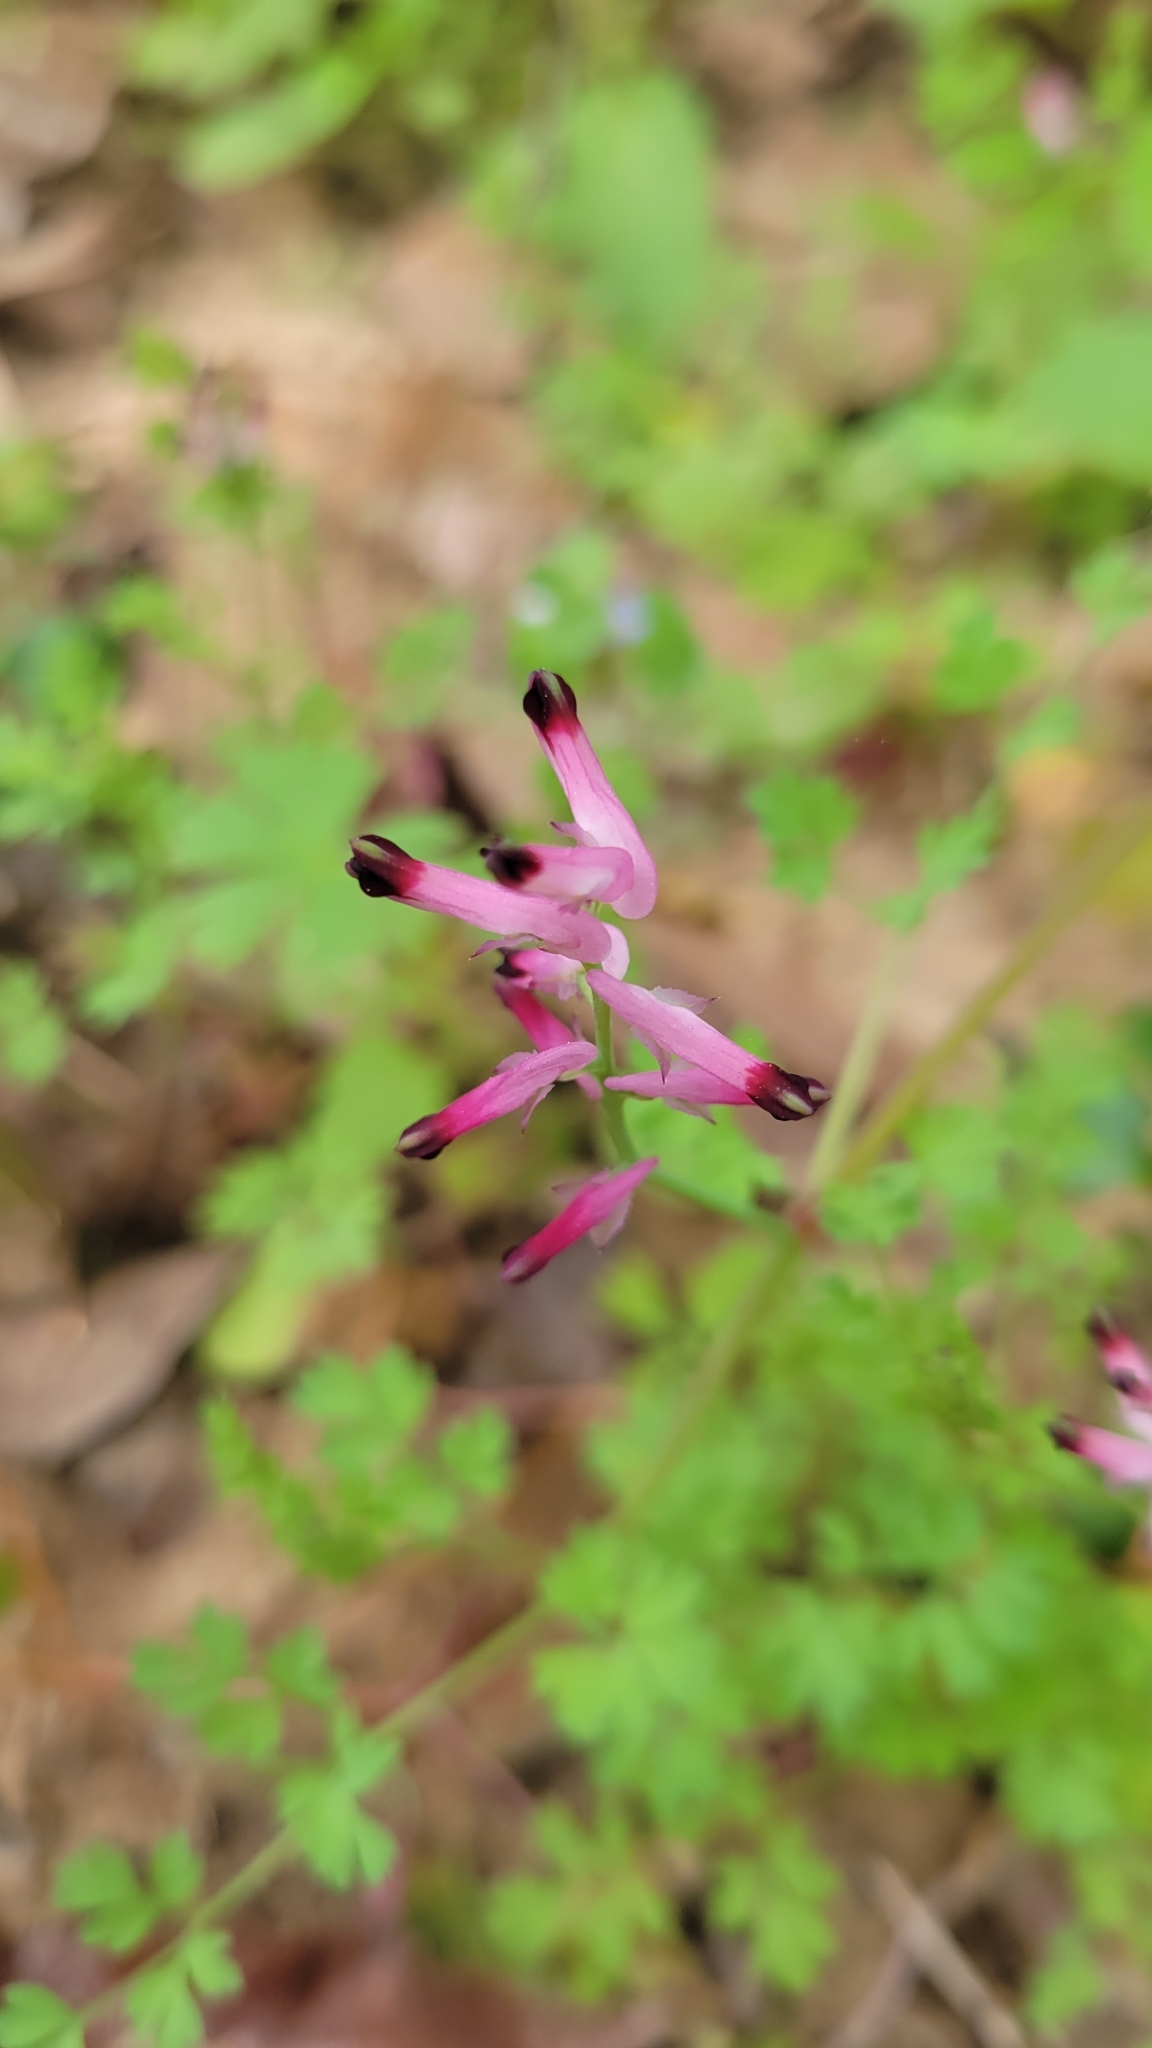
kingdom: Plantae
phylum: Tracheophyta
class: Magnoliopsida
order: Ranunculales
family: Papaveraceae
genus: Fumaria
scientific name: Fumaria muralis
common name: Common ramping-fumitory
